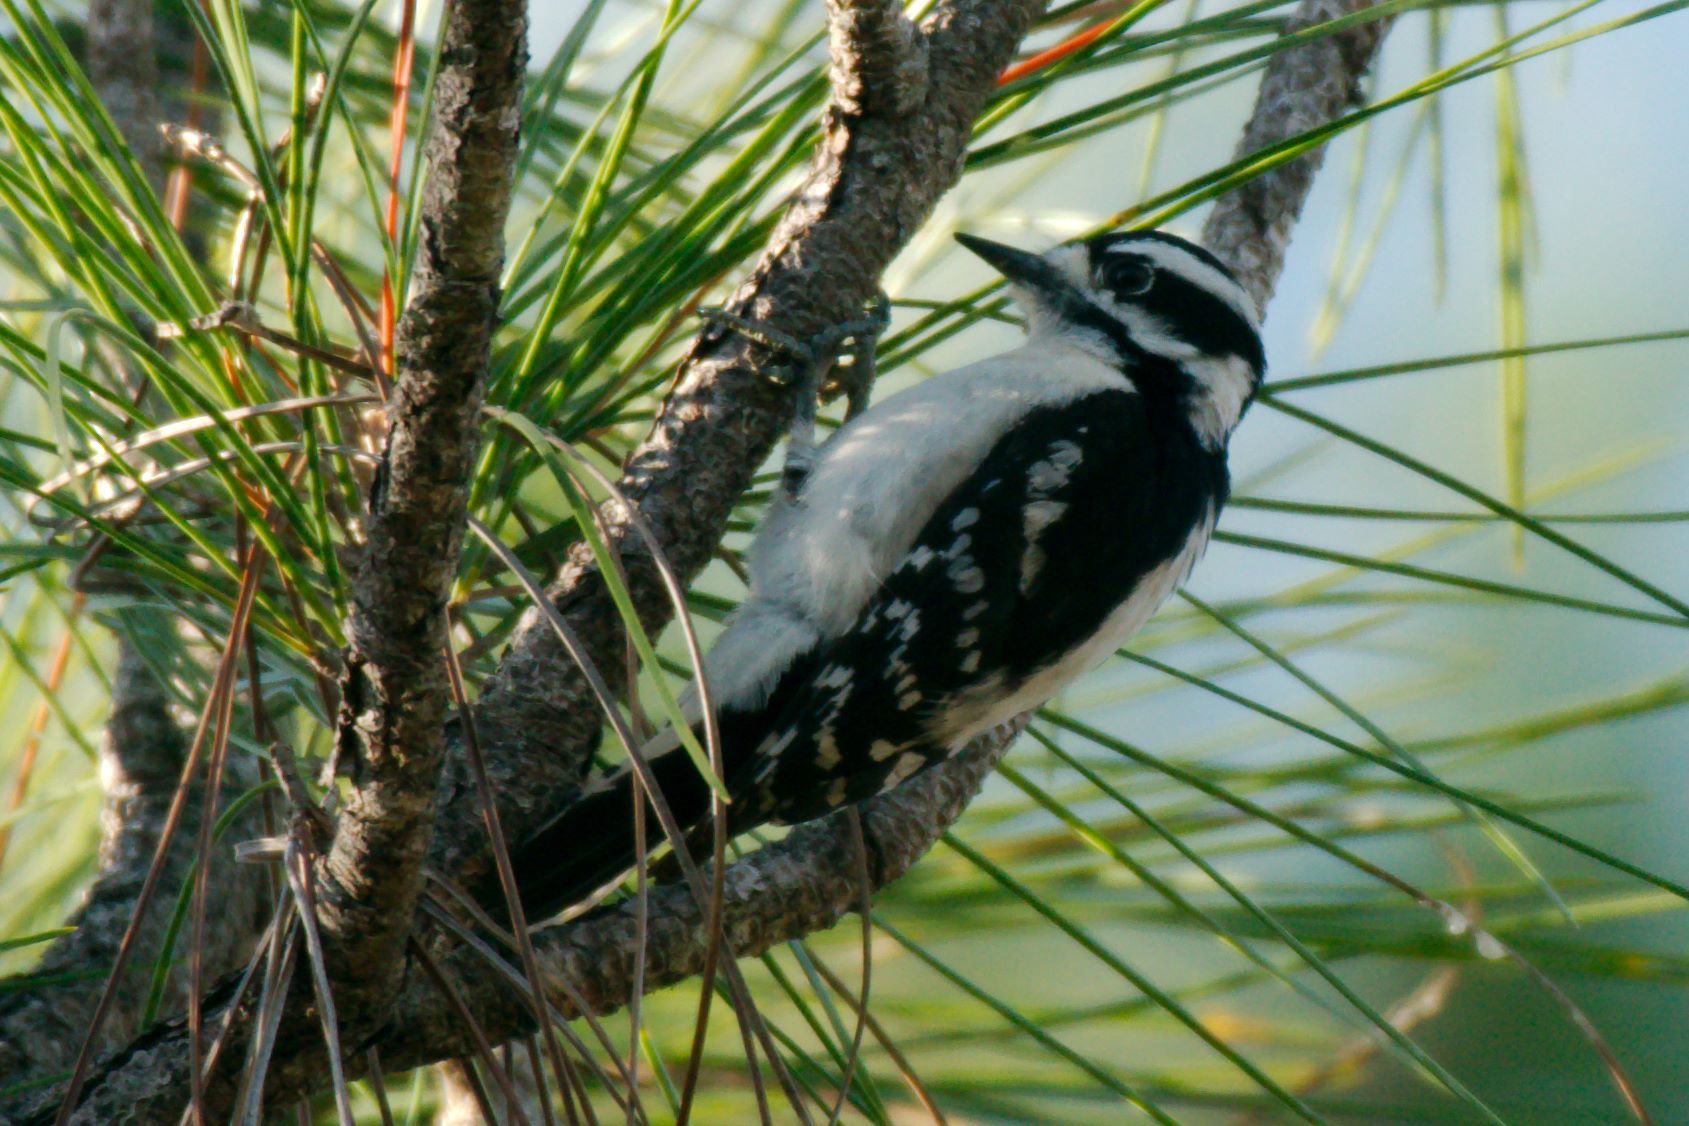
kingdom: Animalia
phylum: Chordata
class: Aves
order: Piciformes
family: Picidae
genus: Dryobates
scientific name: Dryobates pubescens
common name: Downy woodpecker
